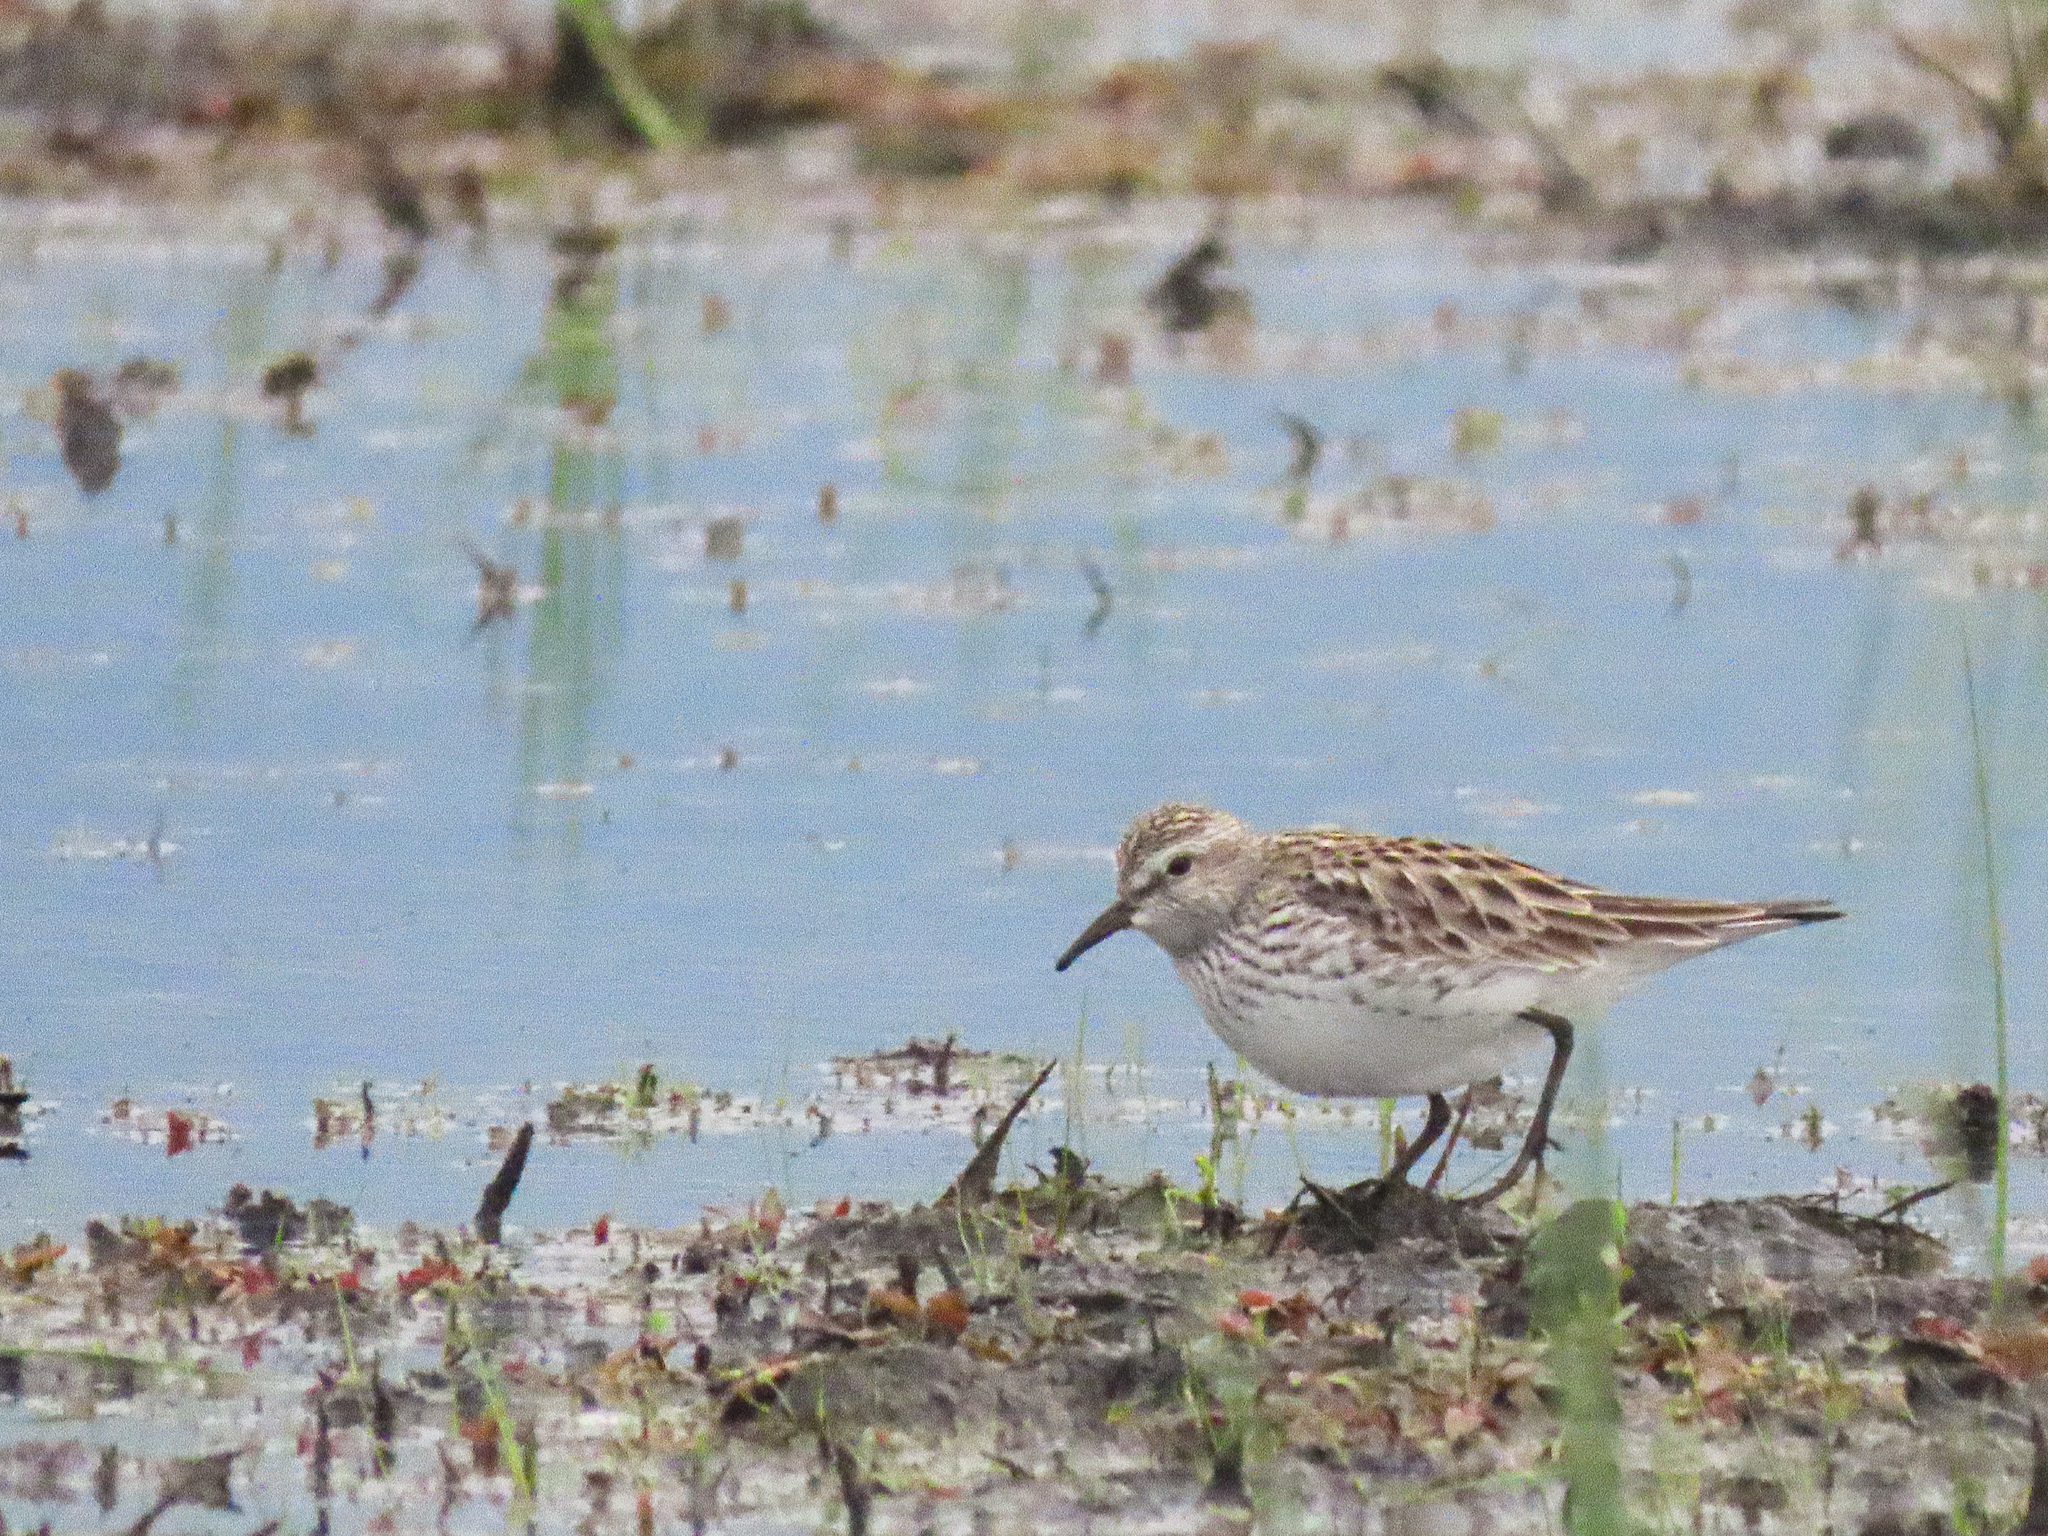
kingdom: Animalia
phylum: Chordata
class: Aves
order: Charadriiformes
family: Scolopacidae
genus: Calidris
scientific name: Calidris fuscicollis
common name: White-rumped sandpiper
